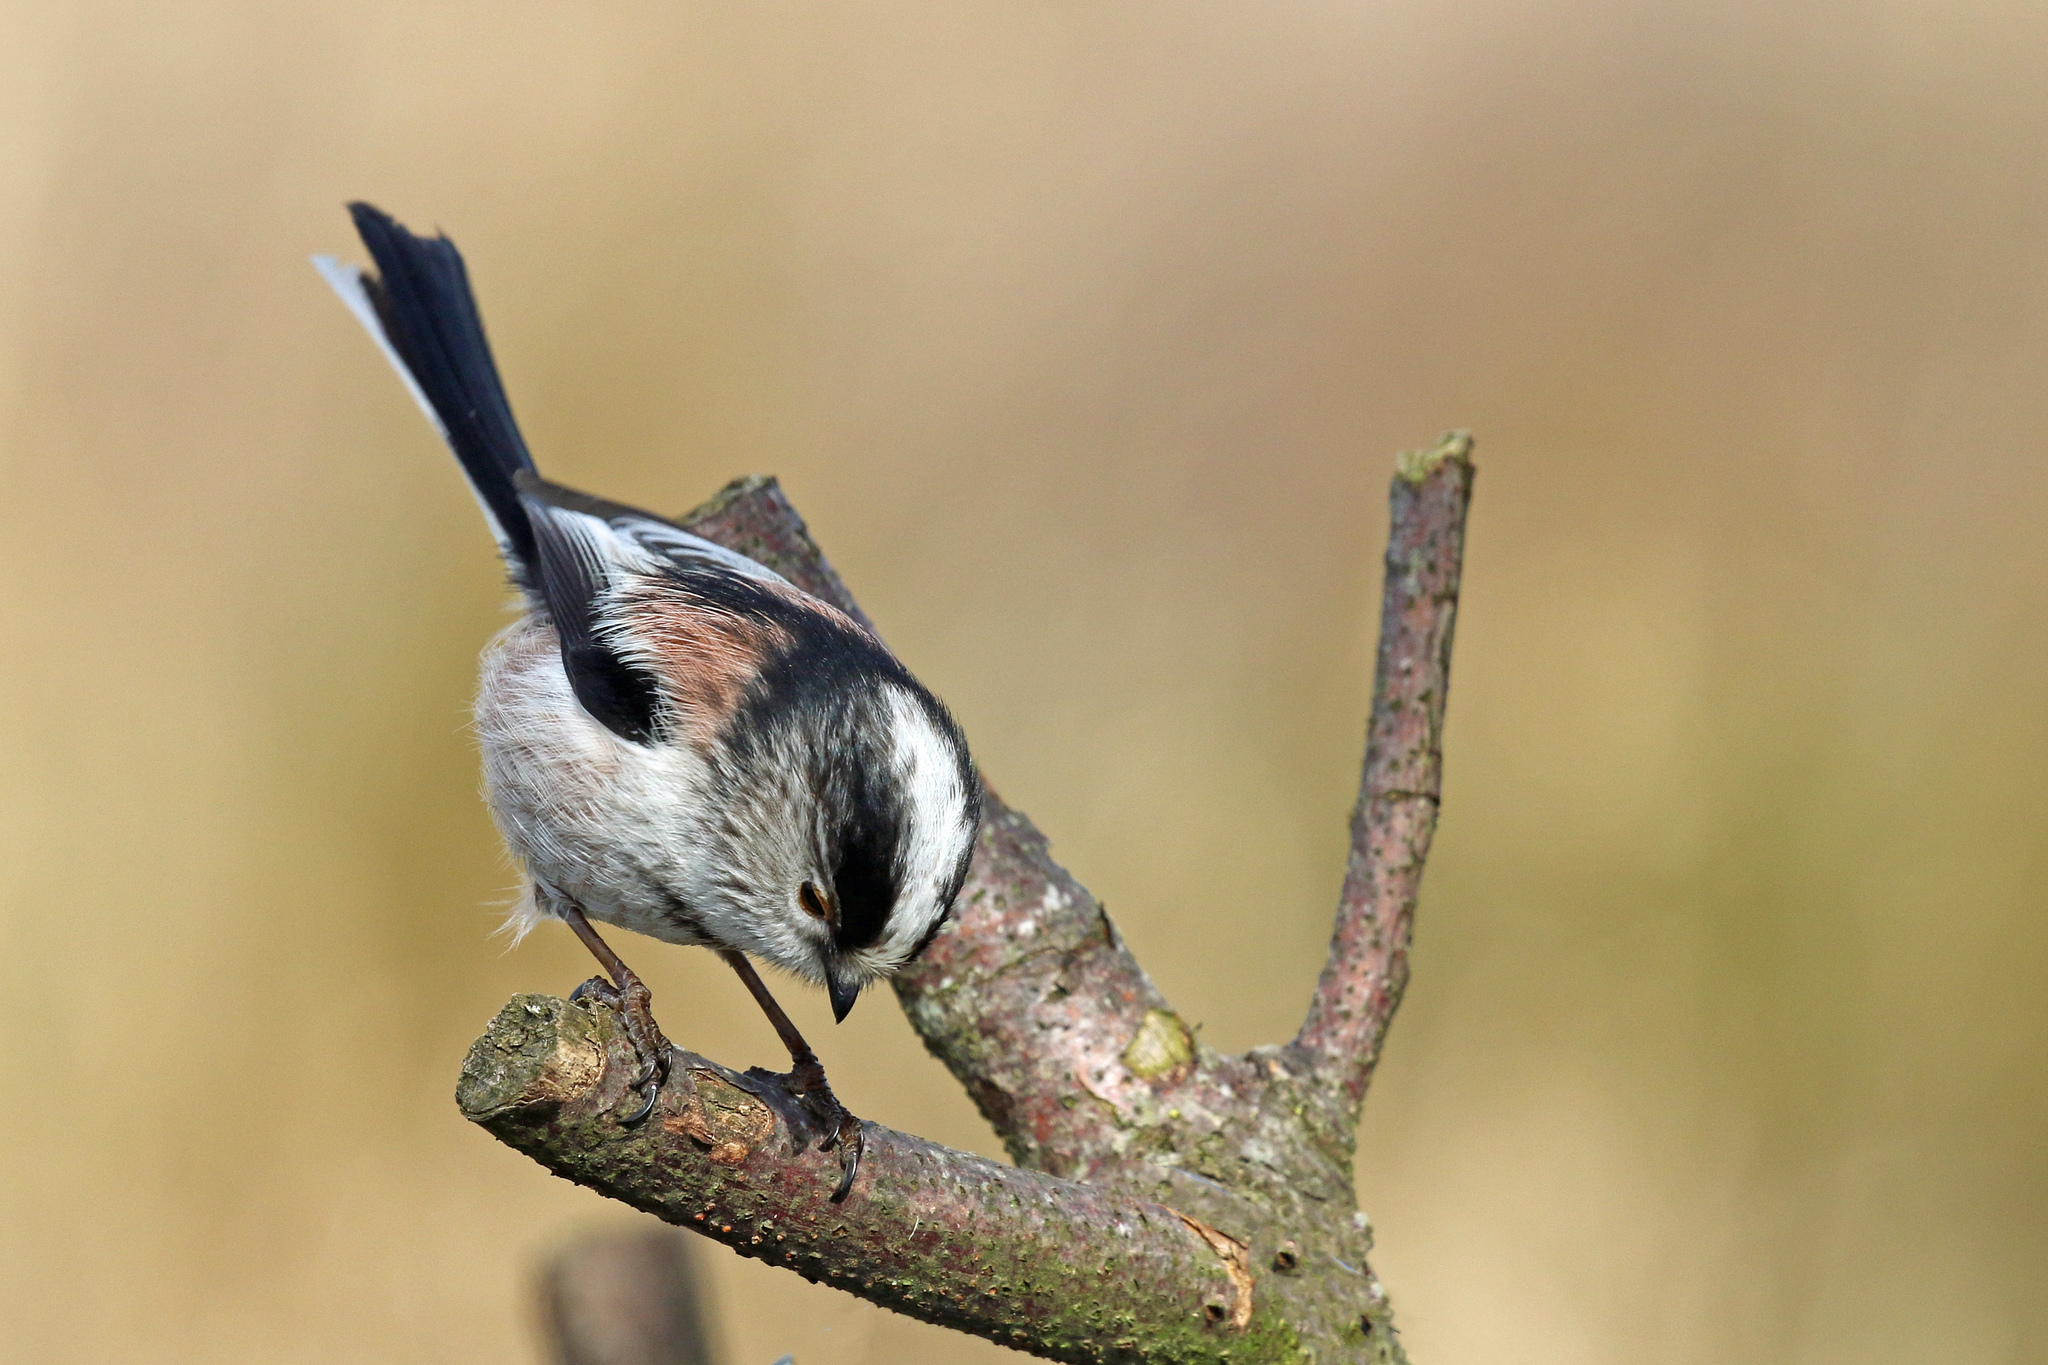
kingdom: Animalia
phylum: Chordata
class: Aves
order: Passeriformes
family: Aegithalidae
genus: Aegithalos
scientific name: Aegithalos caudatus
